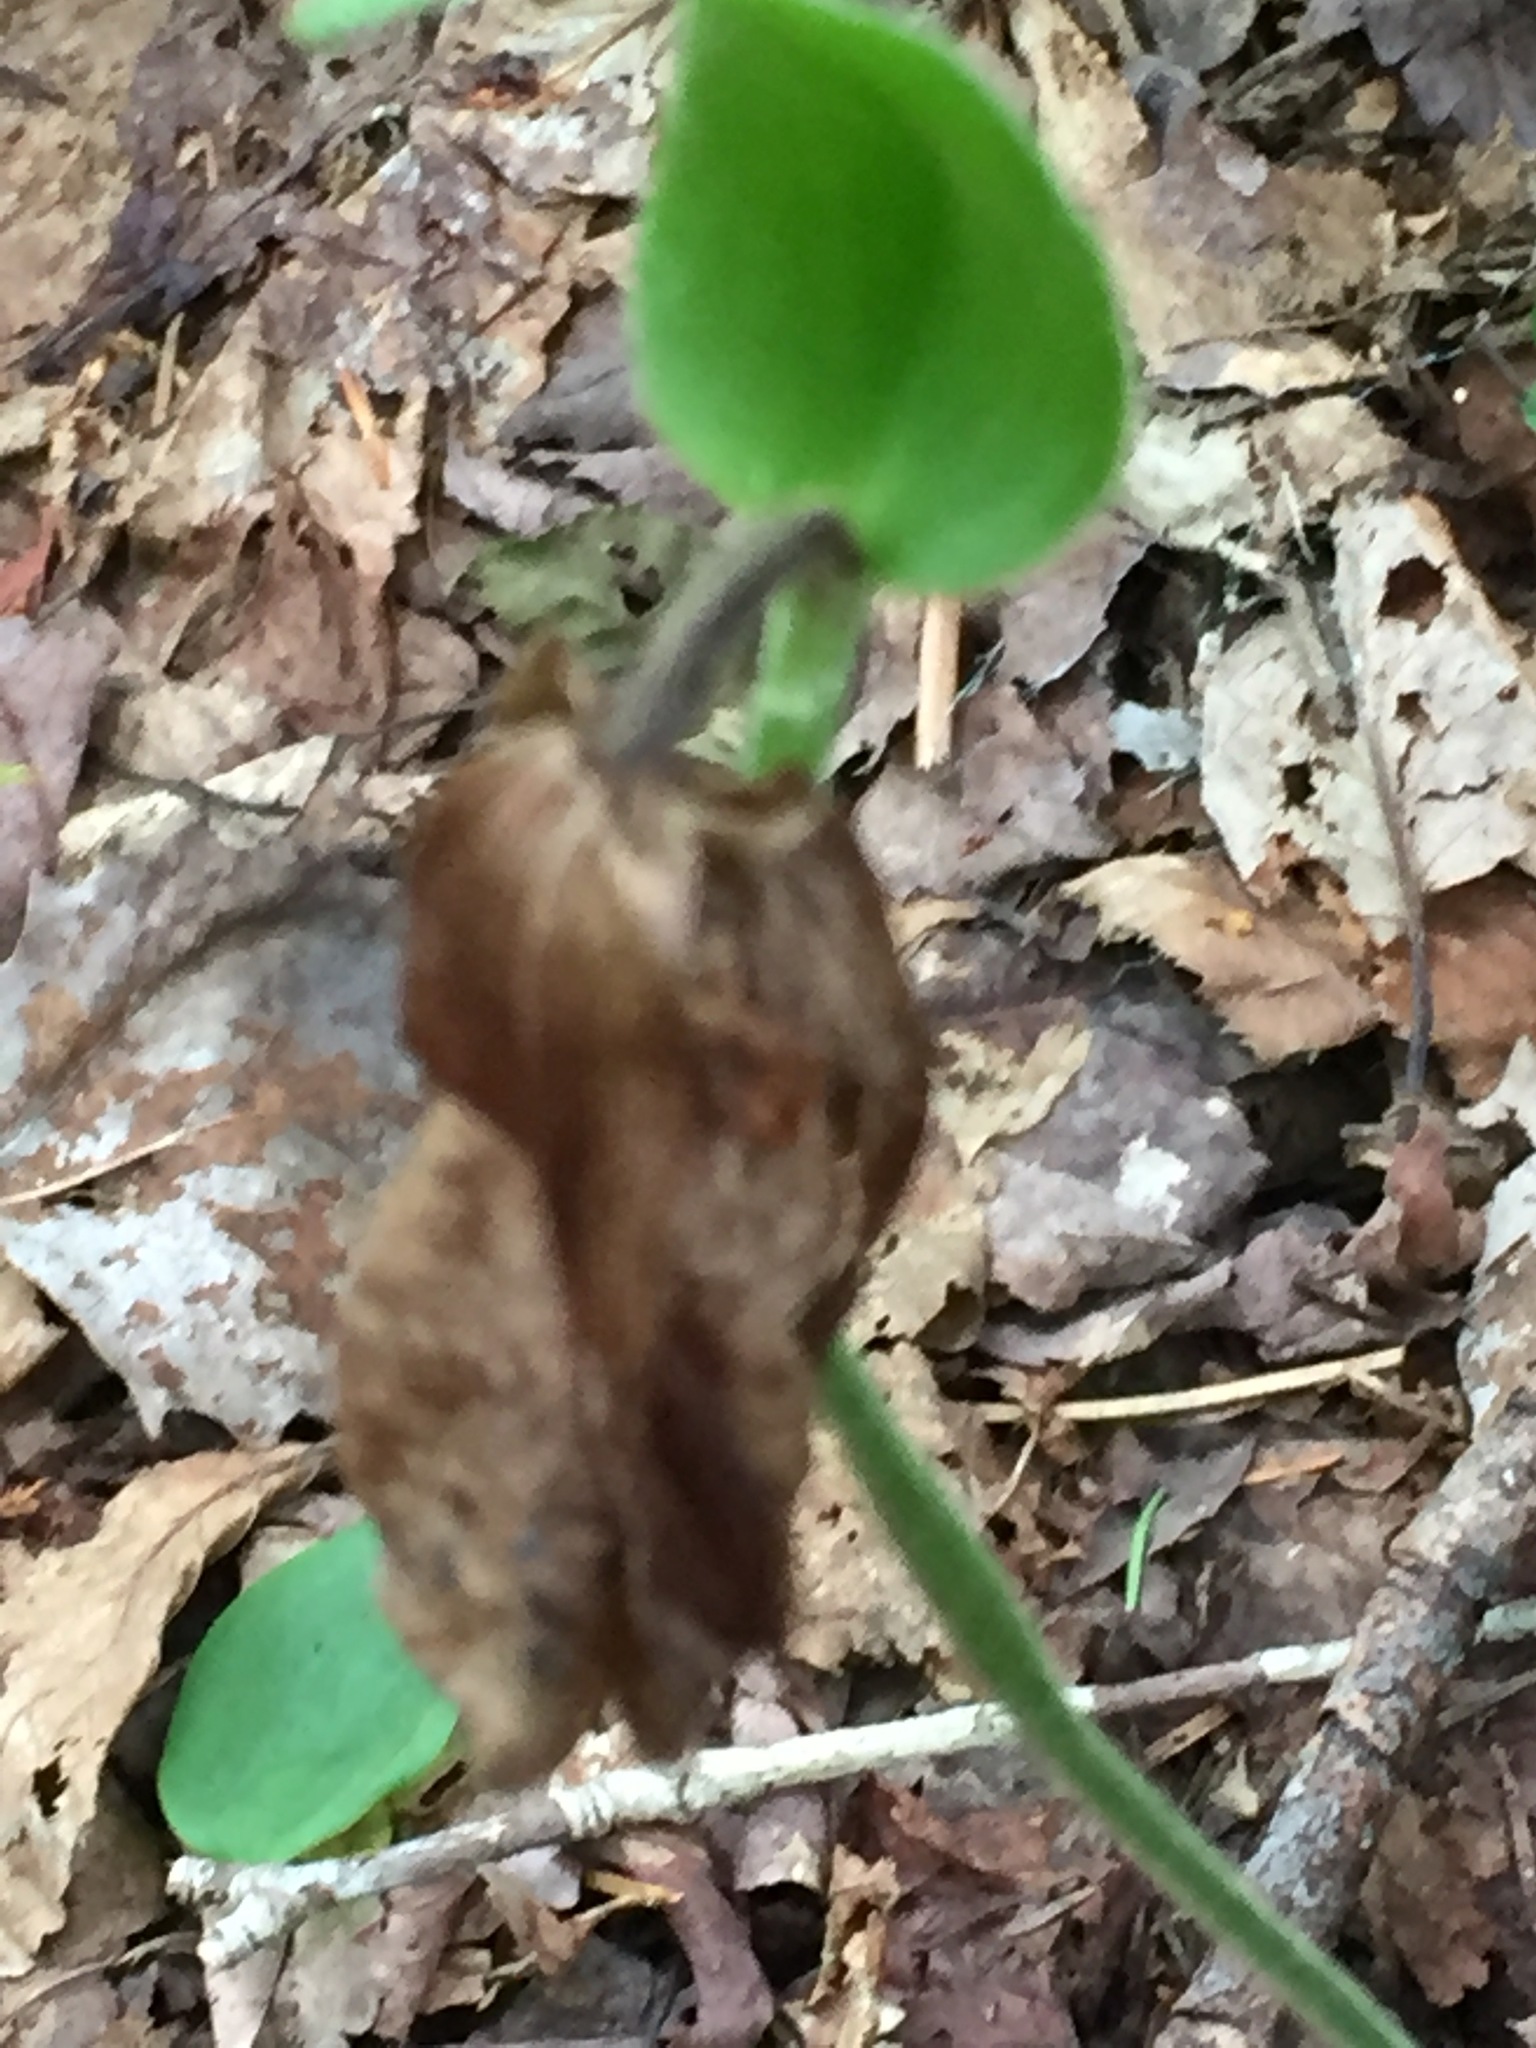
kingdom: Plantae
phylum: Tracheophyta
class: Liliopsida
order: Asparagales
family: Orchidaceae
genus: Cypripedium
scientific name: Cypripedium acaule
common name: Pink lady's-slipper
